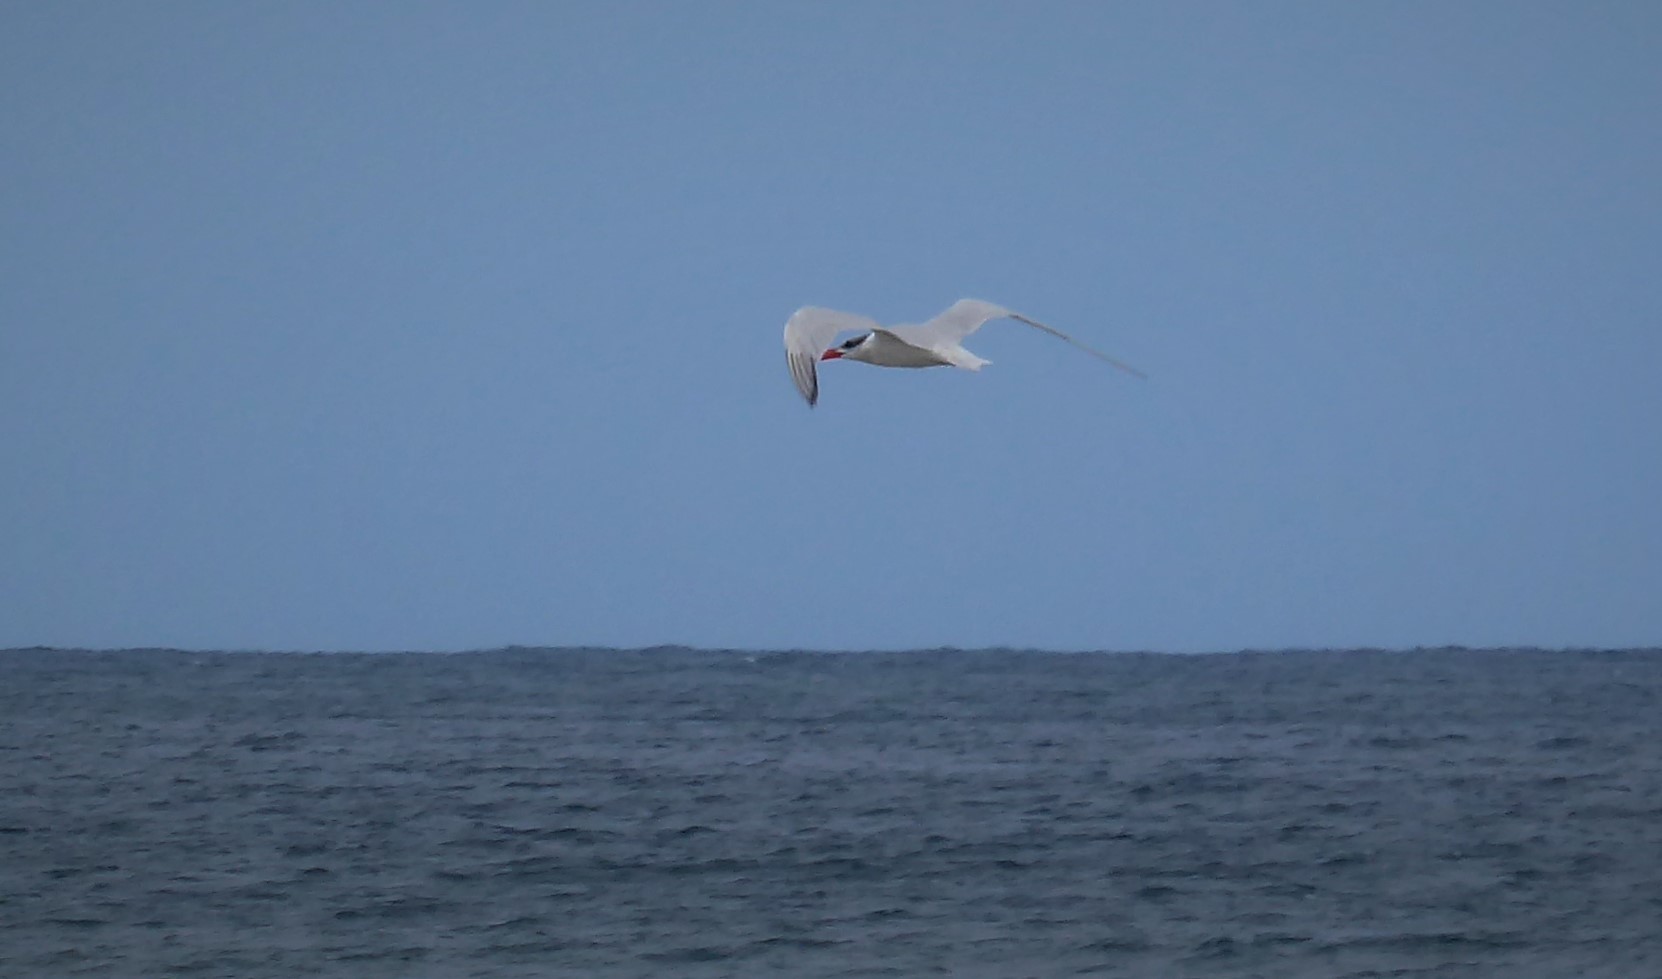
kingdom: Animalia
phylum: Chordata
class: Aves
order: Charadriiformes
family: Laridae
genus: Hydroprogne
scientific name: Hydroprogne caspia
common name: Caspian tern
